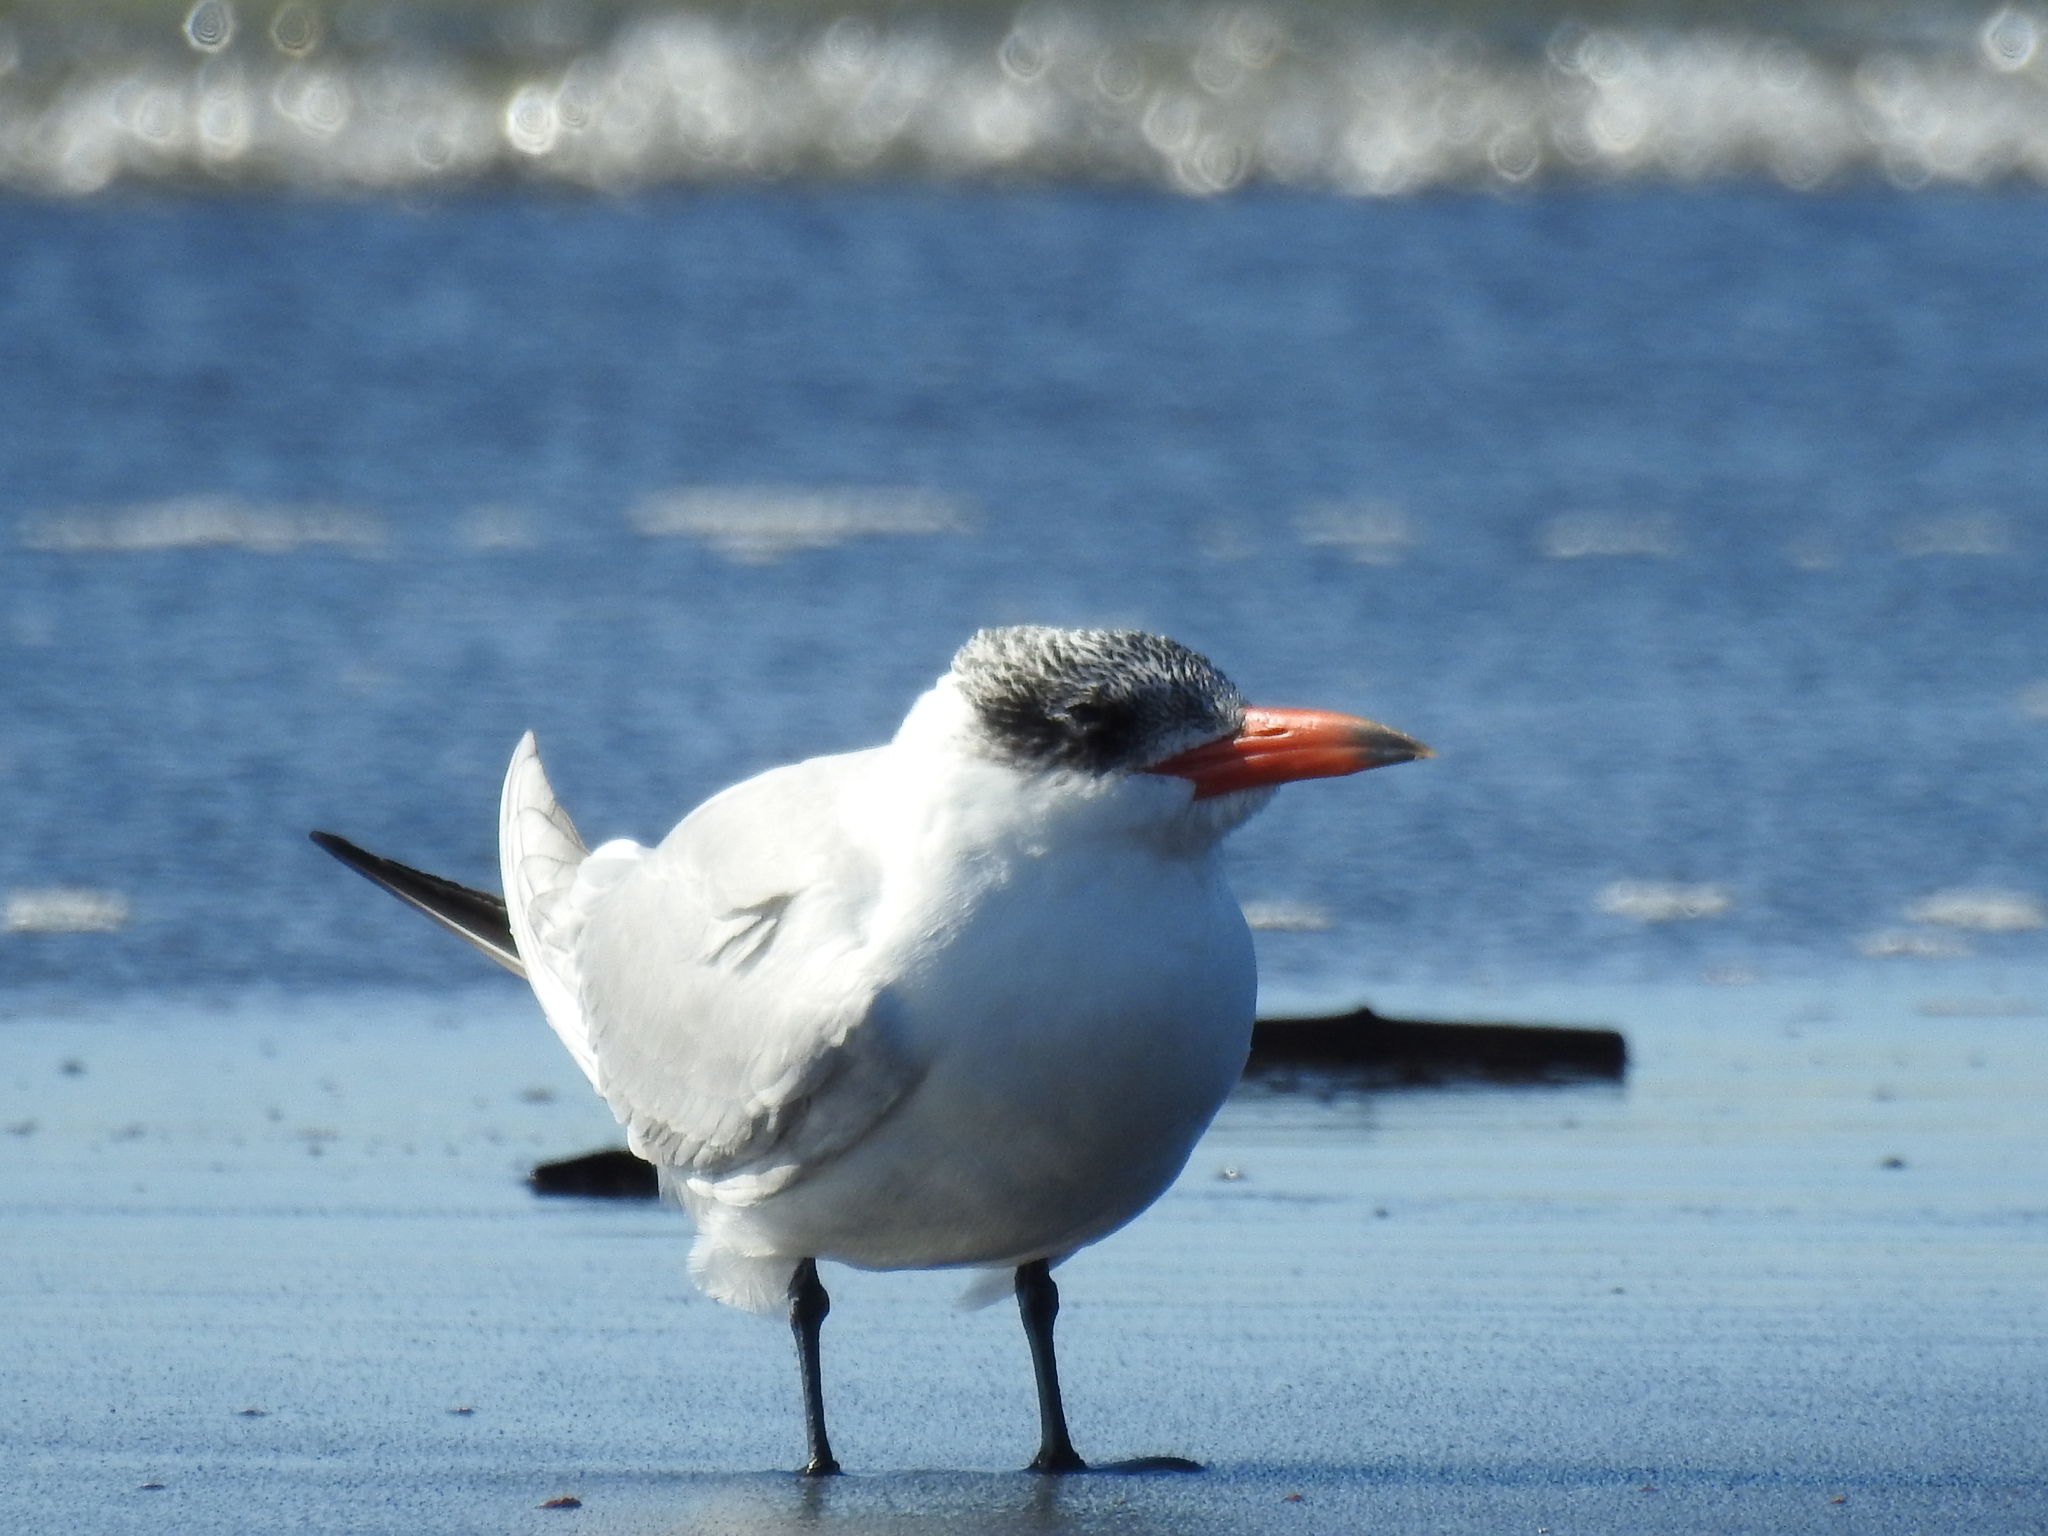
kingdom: Animalia
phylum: Chordata
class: Aves
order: Charadriiformes
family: Laridae
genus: Hydroprogne
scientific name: Hydroprogne caspia
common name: Caspian tern
